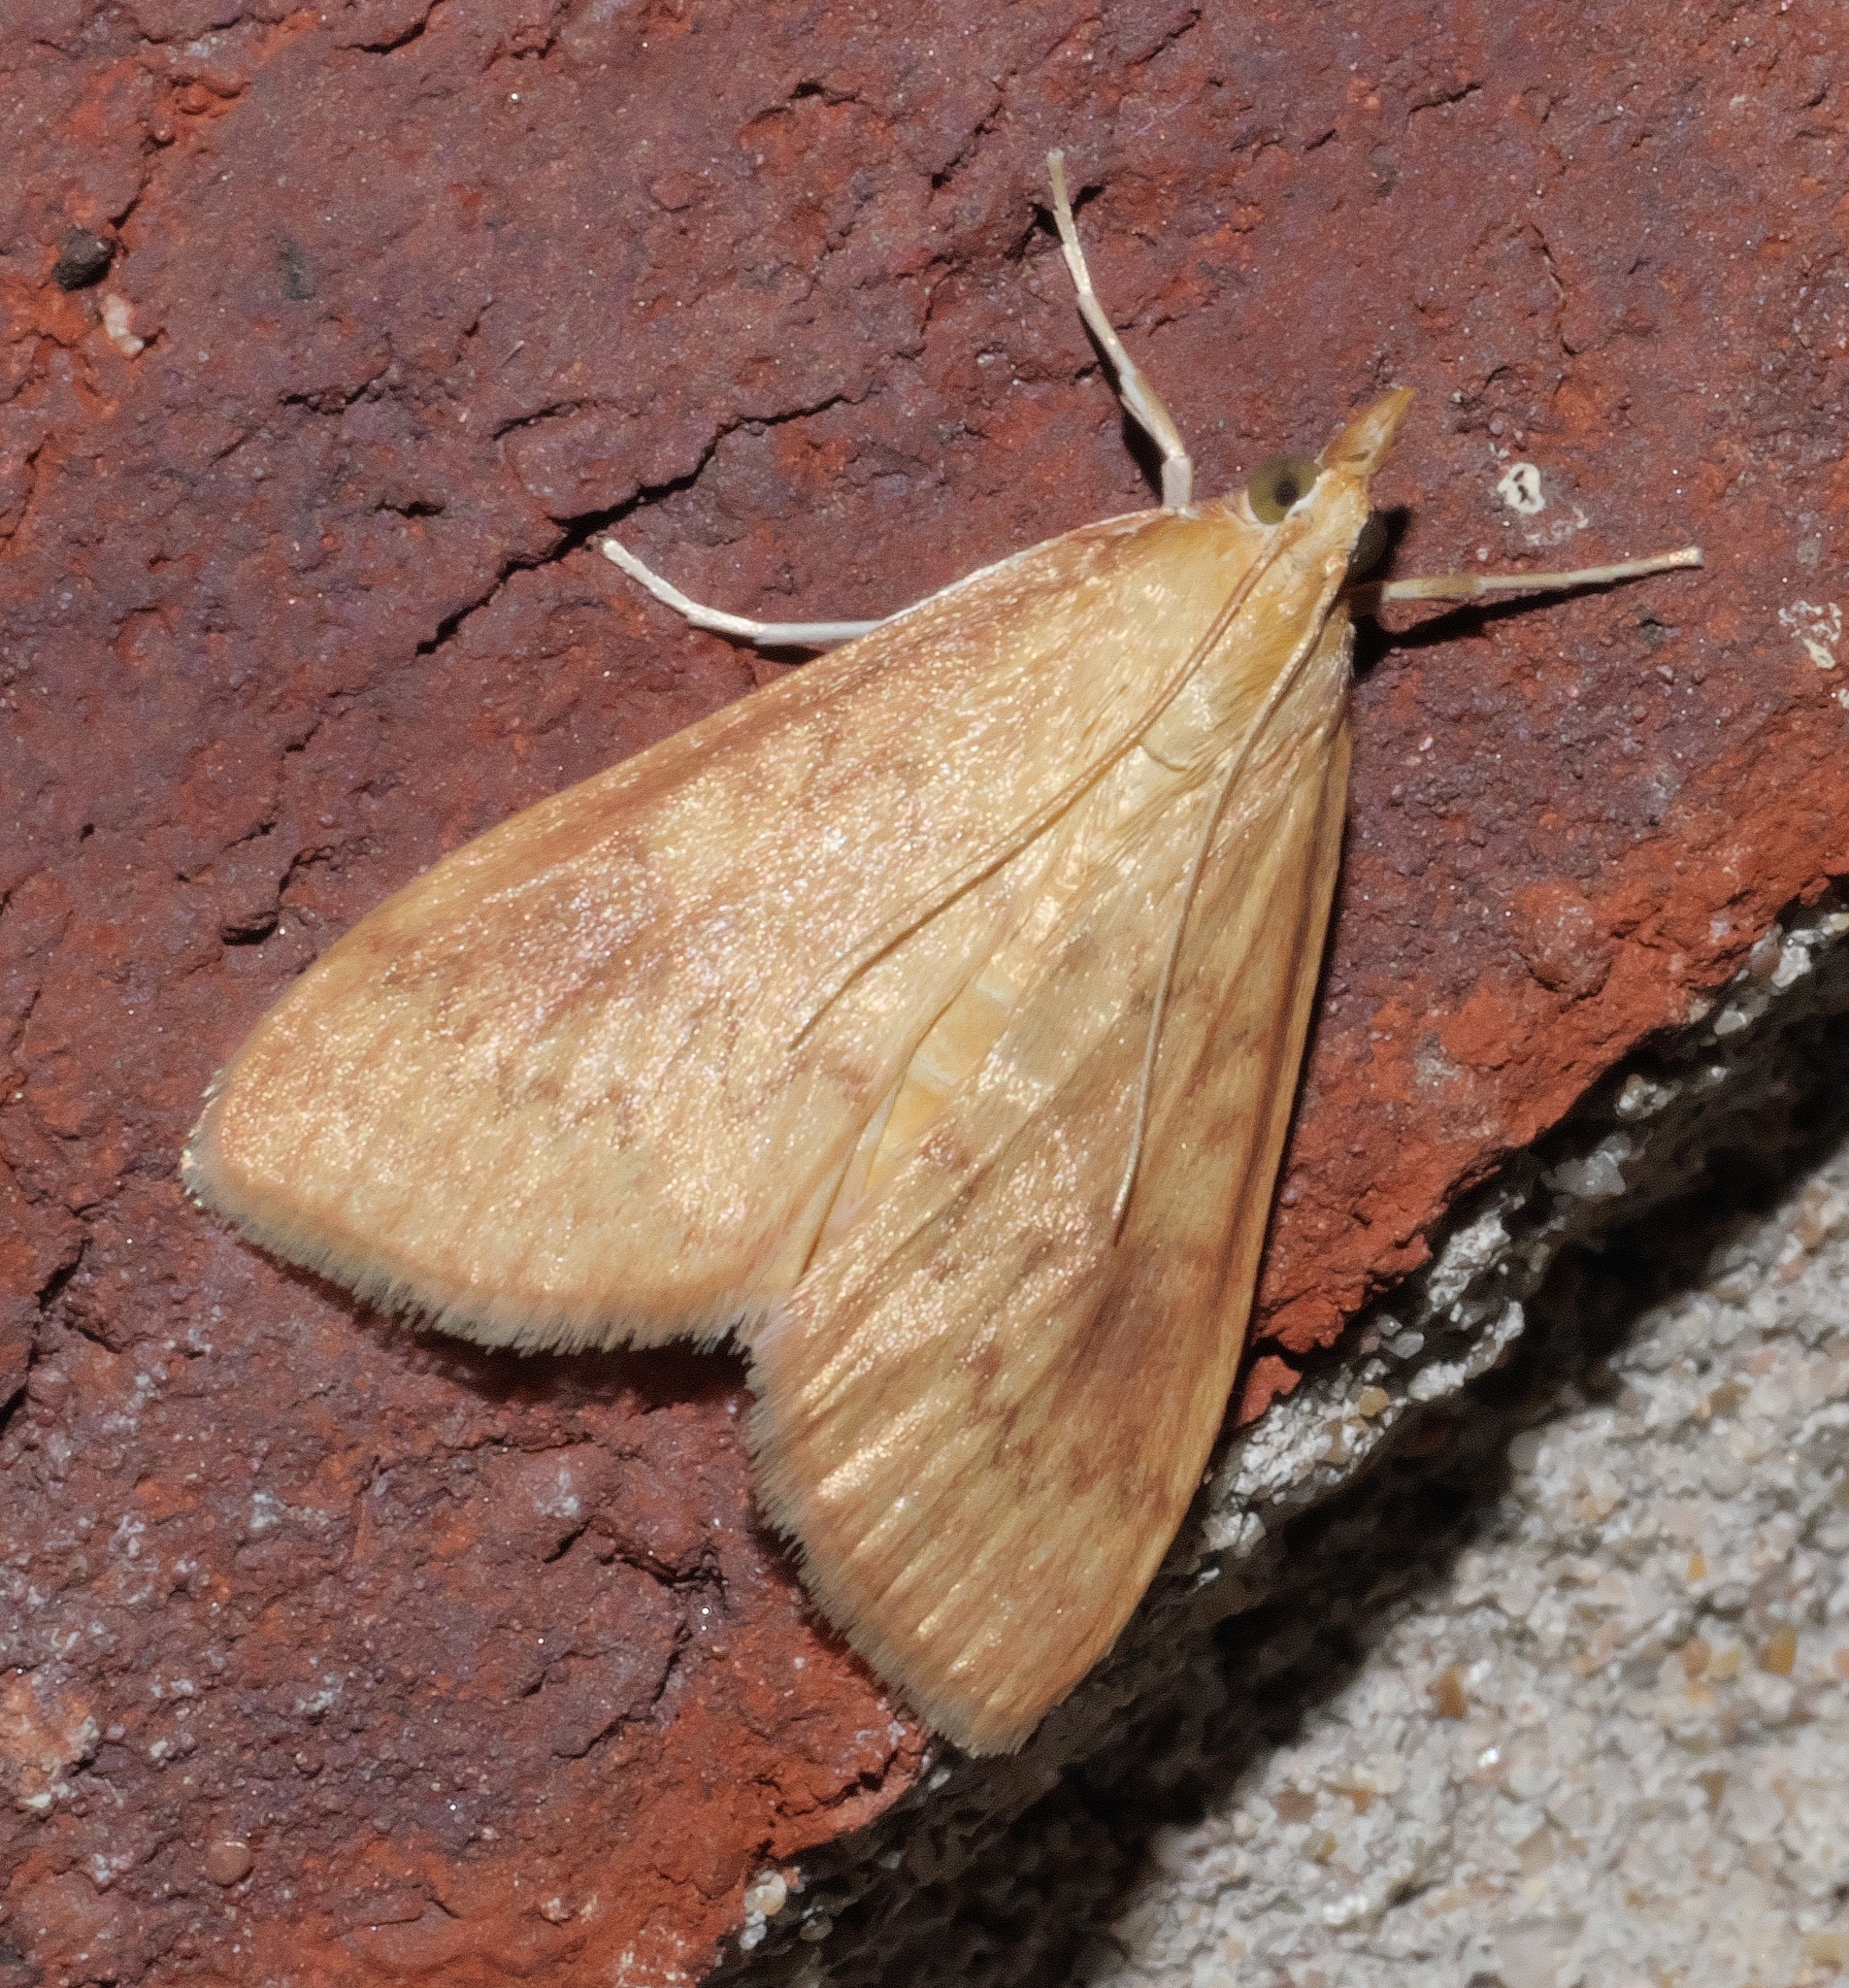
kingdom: Animalia
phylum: Arthropoda
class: Insecta
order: Lepidoptera
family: Crambidae
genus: Ostrinia
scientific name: Ostrinia penitalis
